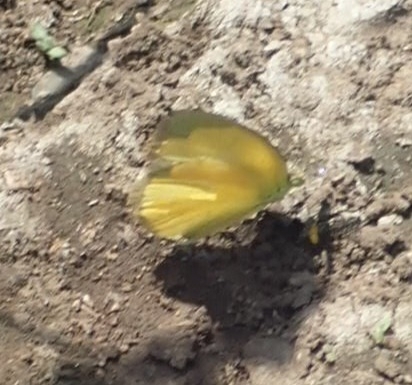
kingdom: Animalia
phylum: Arthropoda
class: Insecta
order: Lepidoptera
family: Pieridae
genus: Eurema
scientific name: Eurema hecabe
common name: Pale grass yellow
